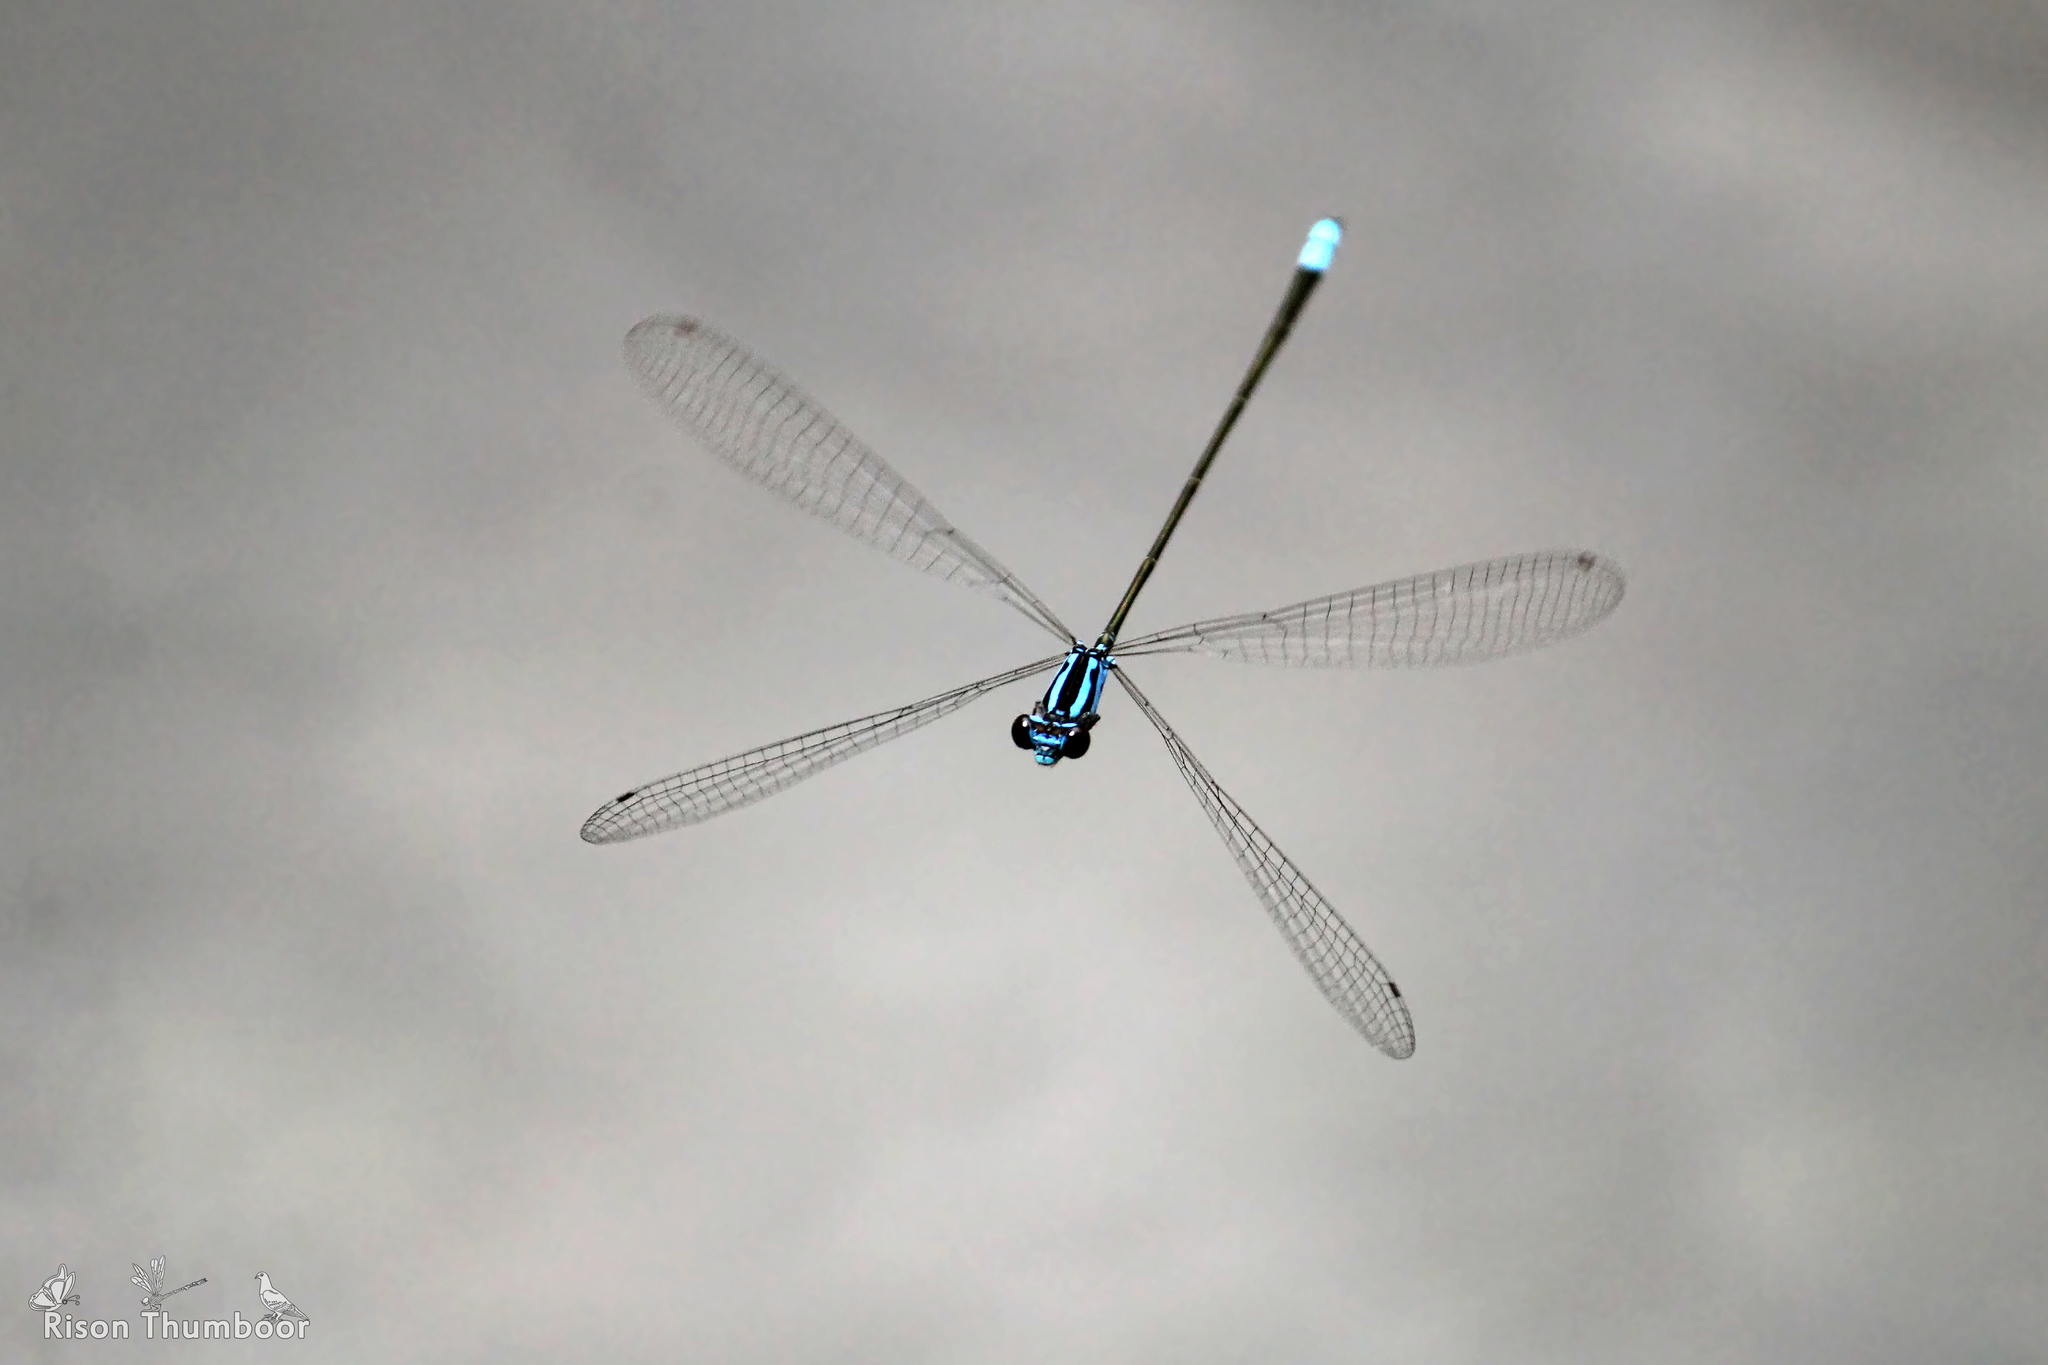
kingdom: Animalia
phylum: Arthropoda
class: Insecta
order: Odonata
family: Coenagrionidae
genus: Archibasis
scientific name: Archibasis oscillans
